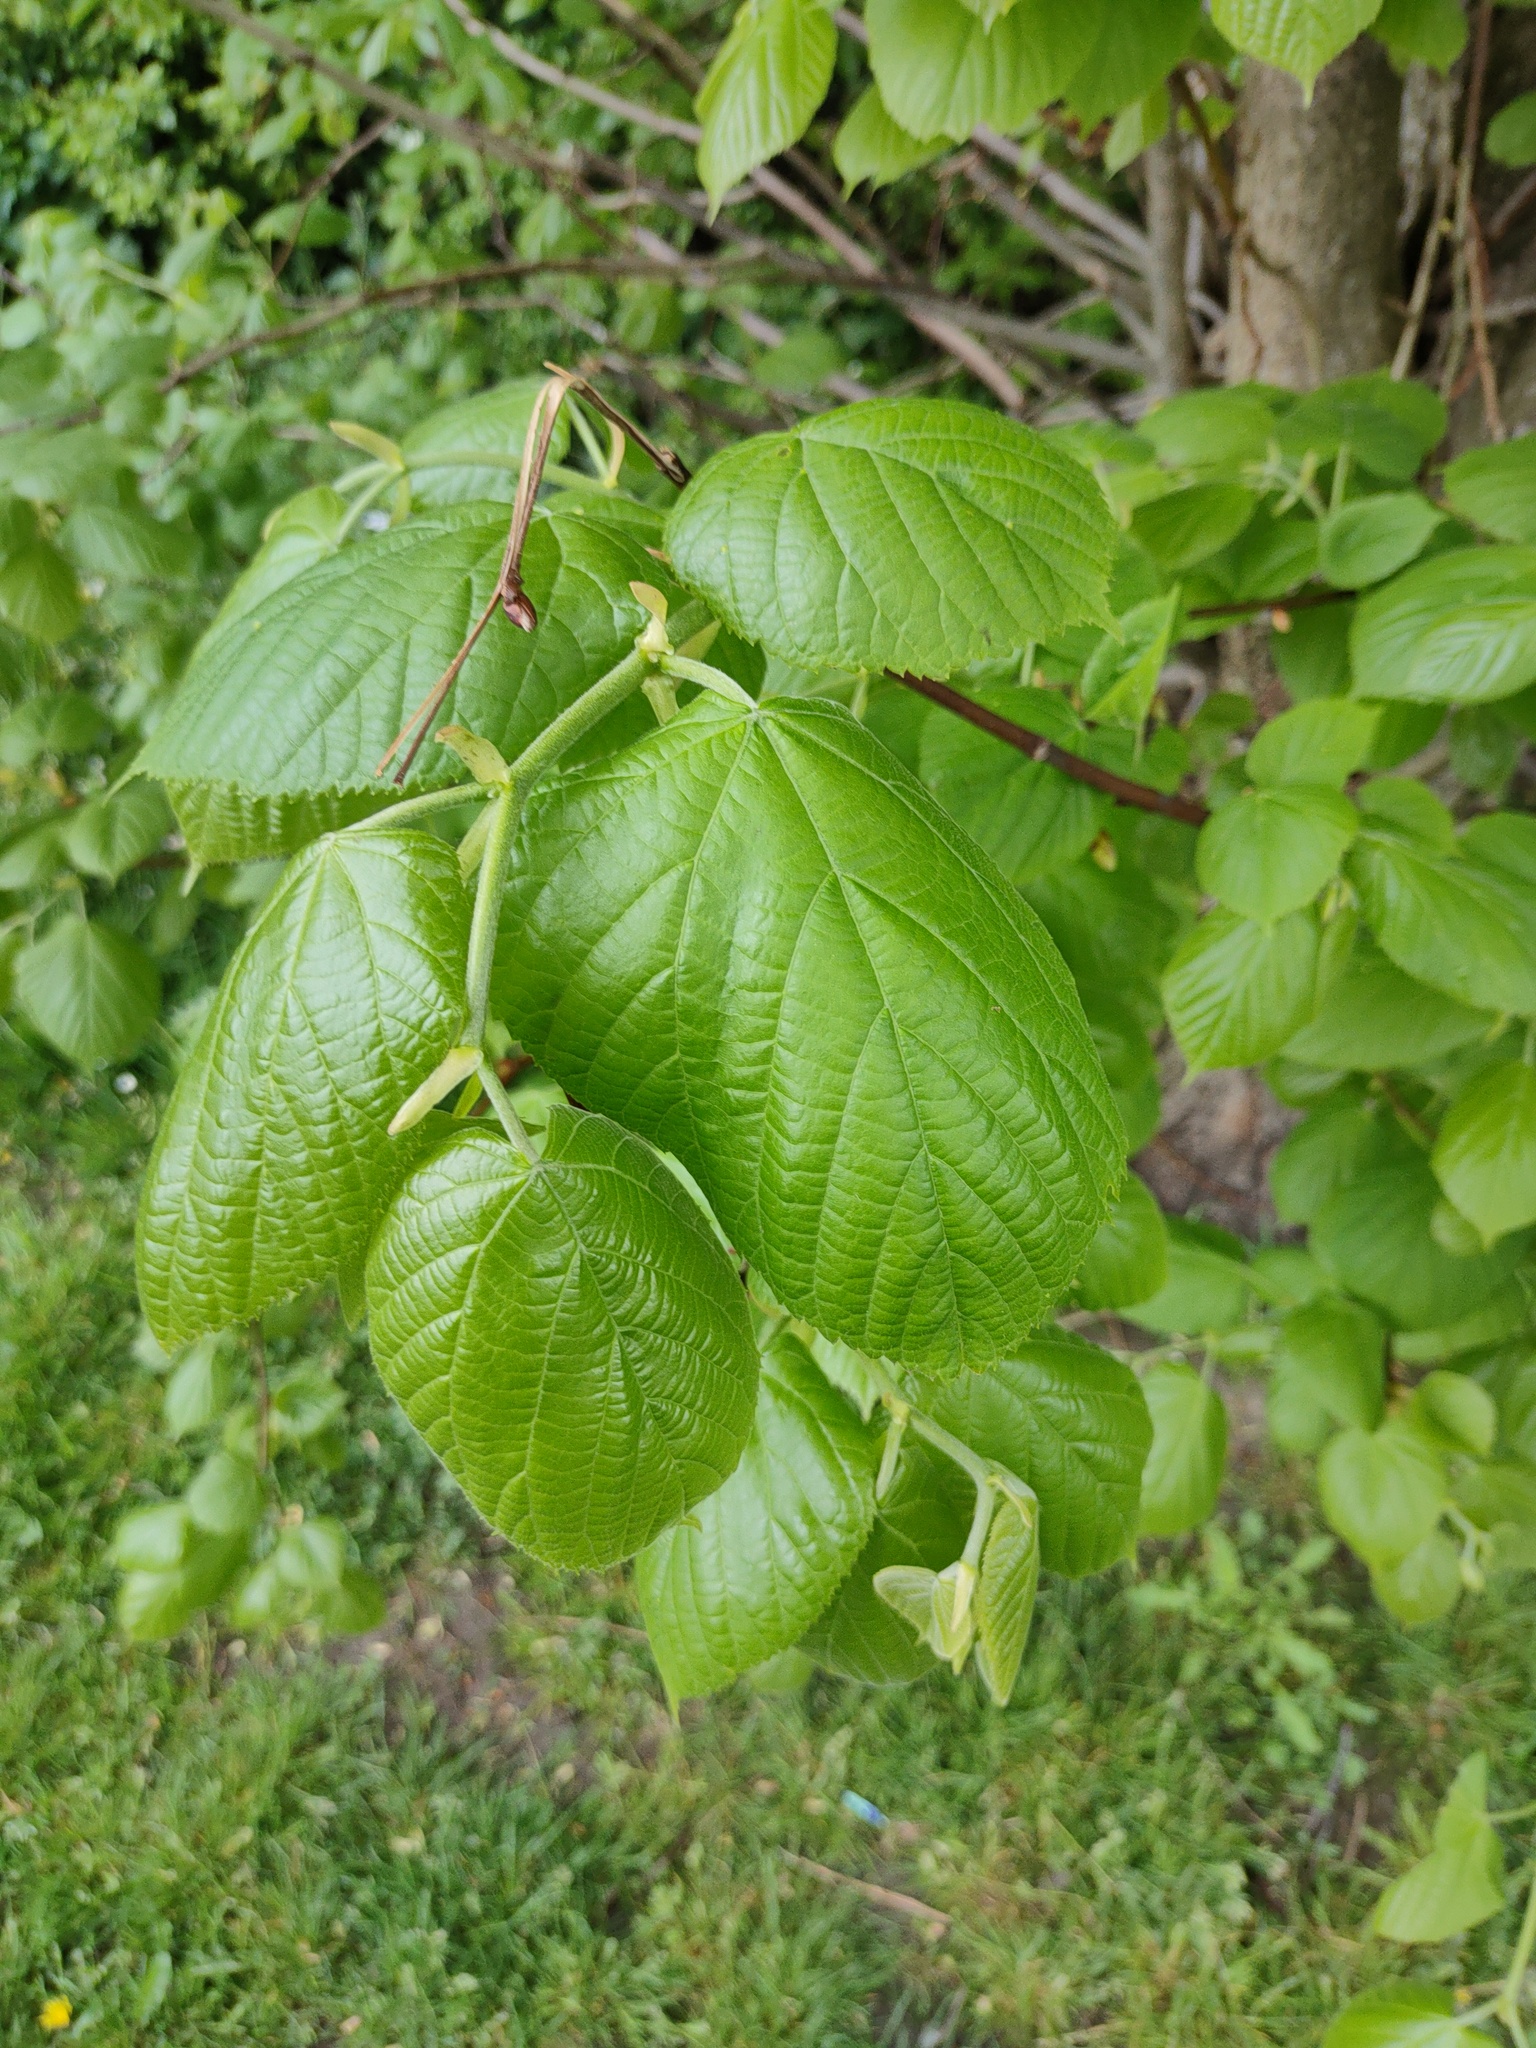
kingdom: Plantae
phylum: Tracheophyta
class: Magnoliopsida
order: Malvales
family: Malvaceae
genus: Tilia
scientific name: Tilia europaea
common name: European linden
